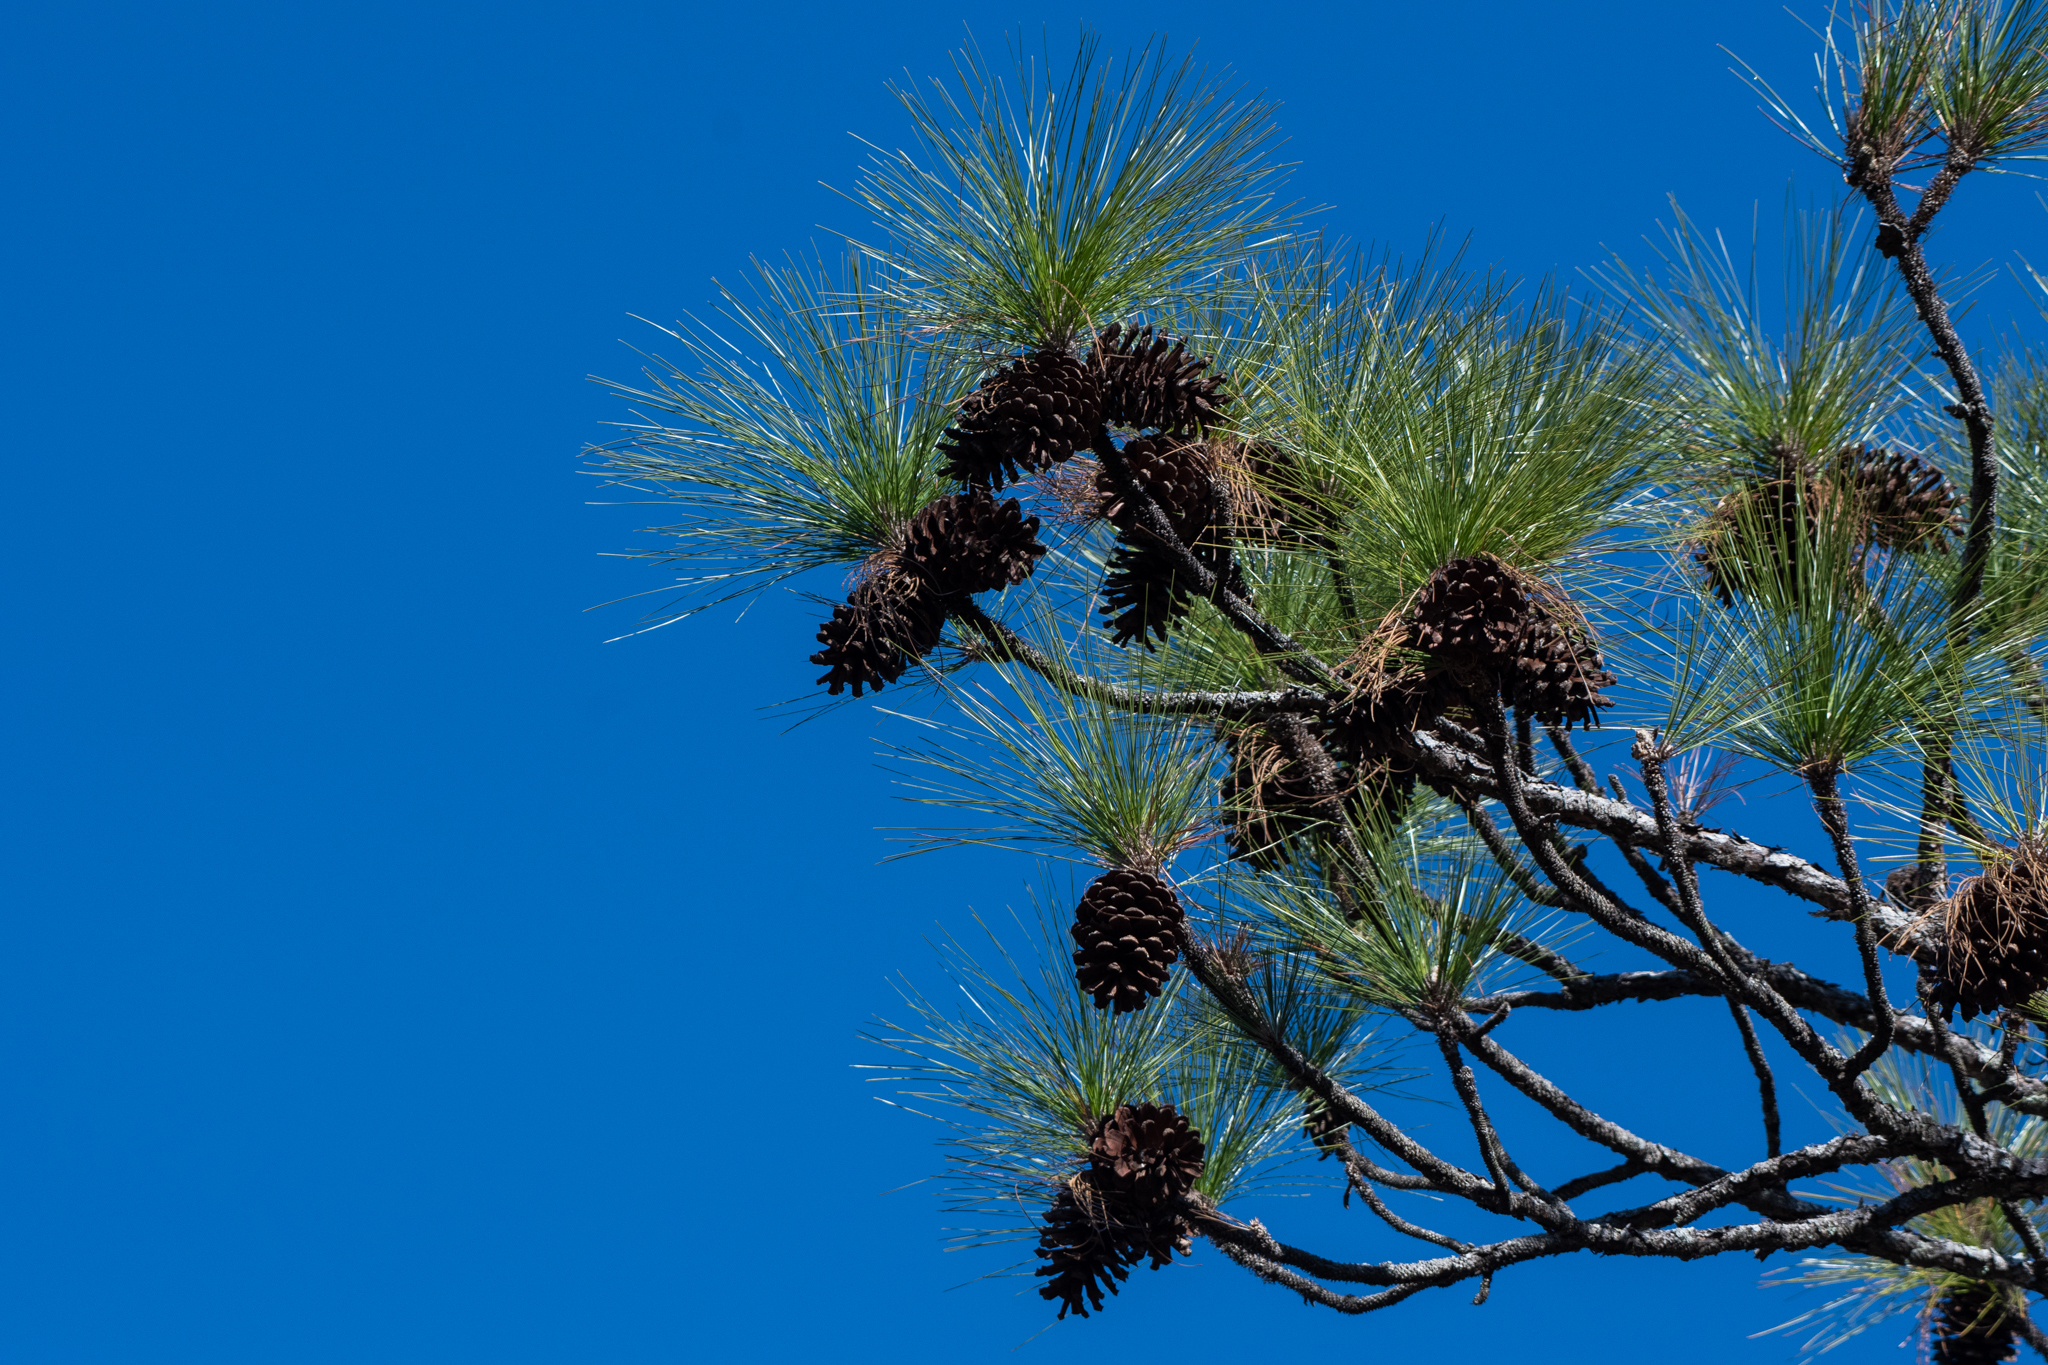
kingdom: Plantae
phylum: Tracheophyta
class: Pinopsida
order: Pinales
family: Pinaceae
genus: Pinus
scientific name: Pinus palustris
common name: Longleaf pine
